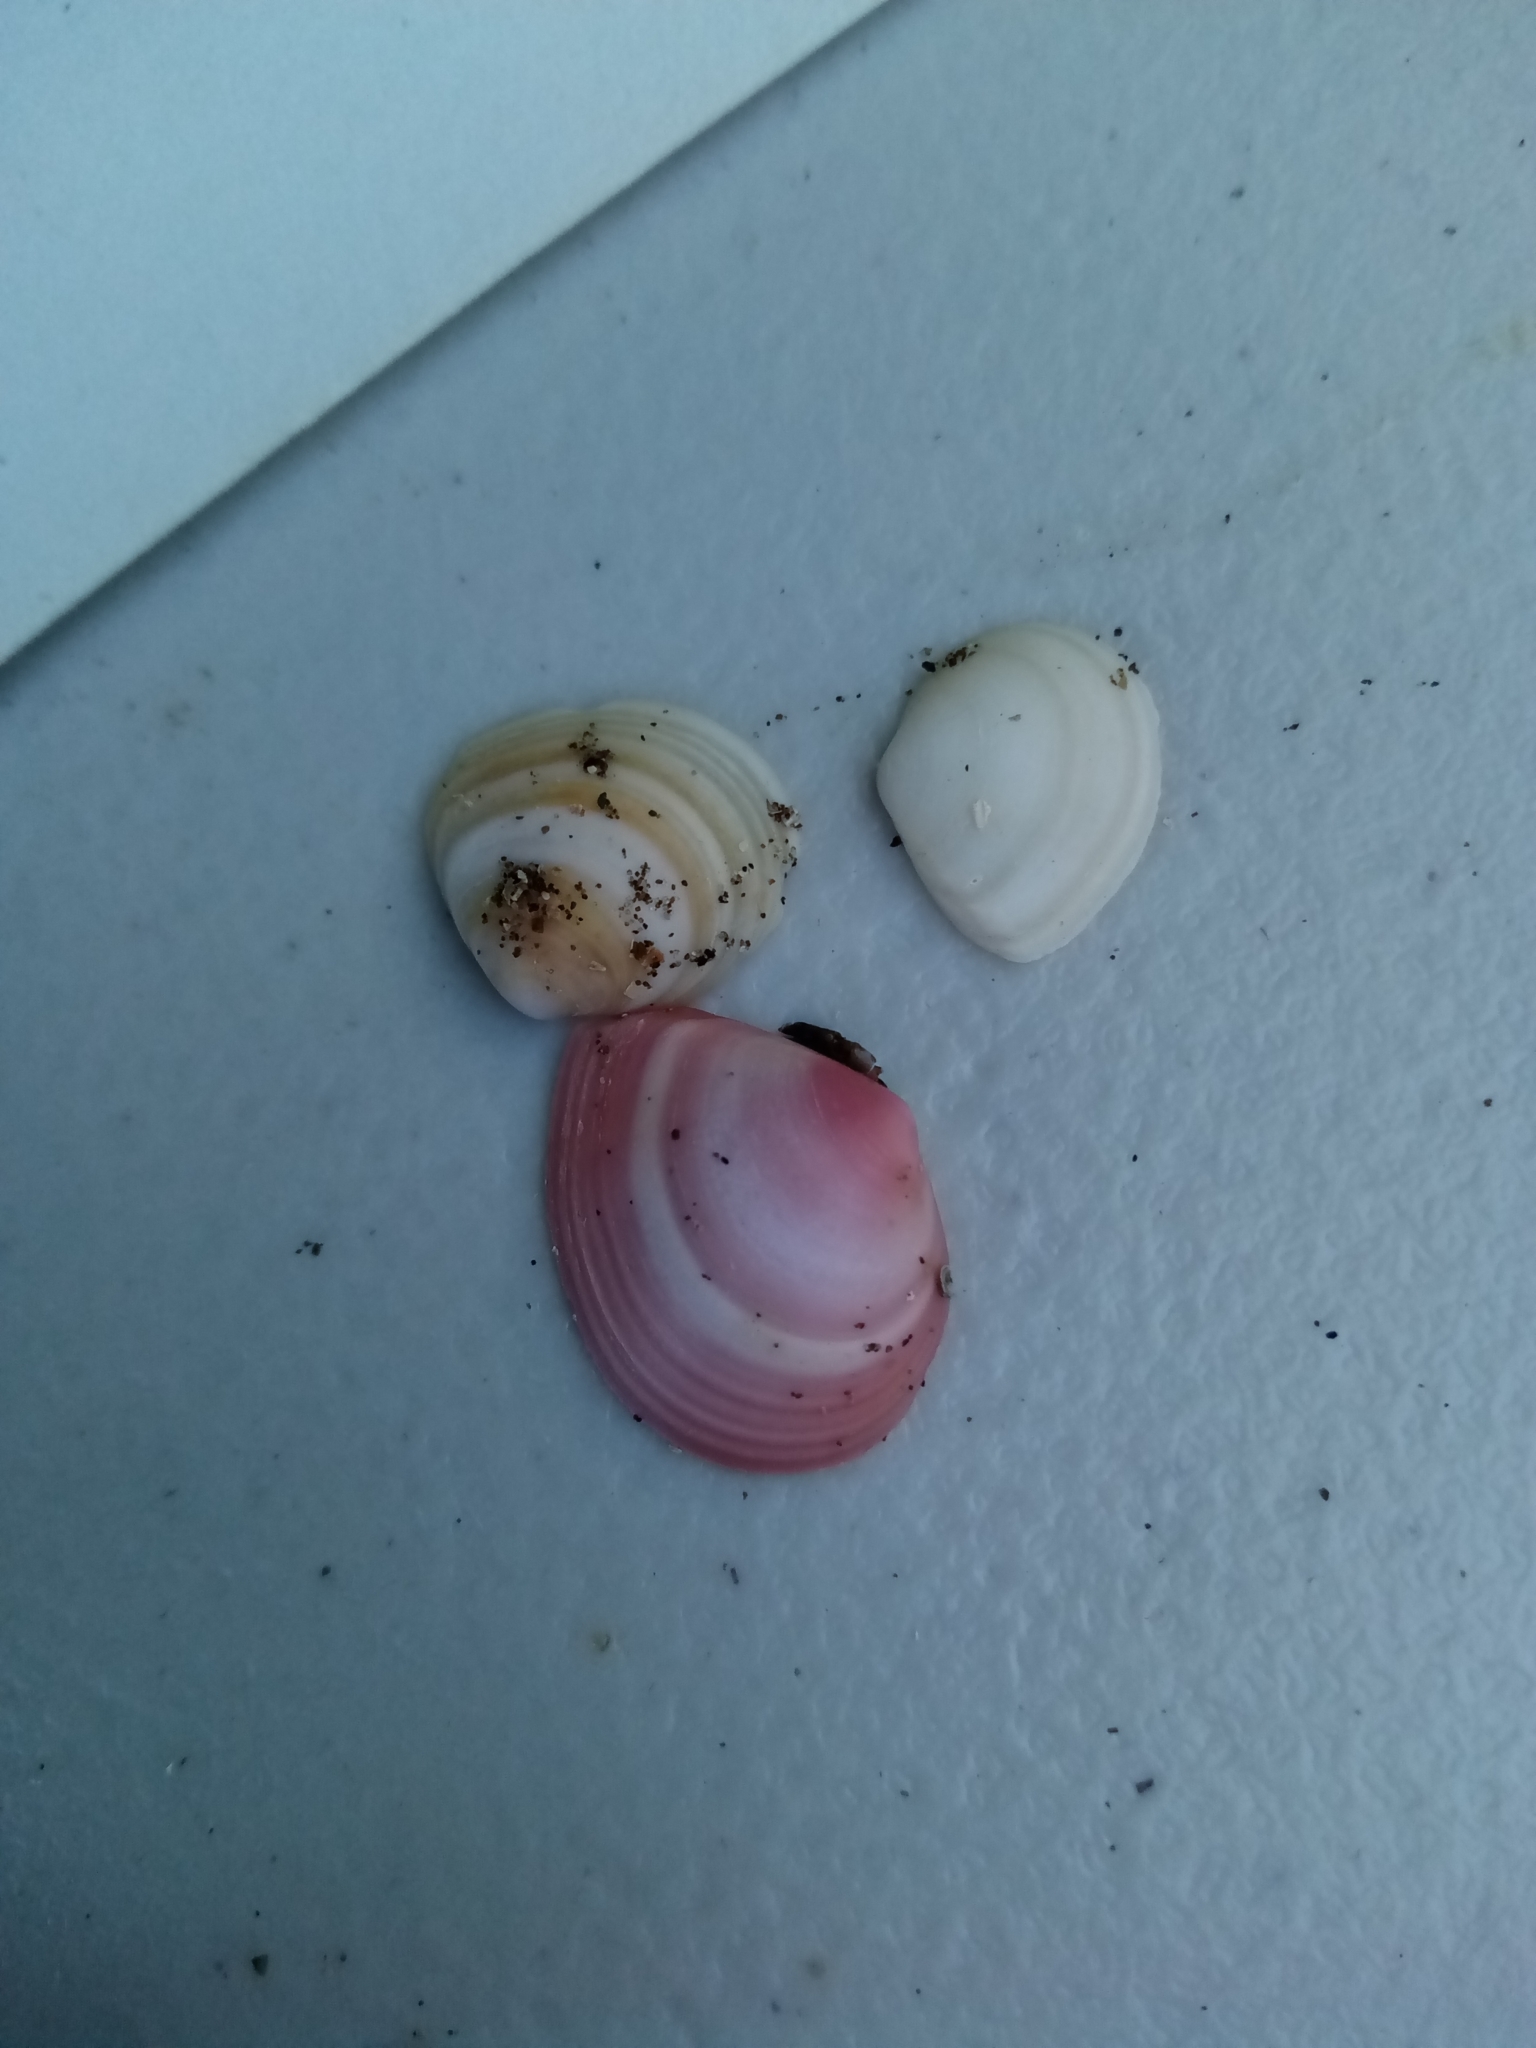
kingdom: Animalia
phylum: Mollusca
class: Bivalvia
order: Cardiida
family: Tellinidae
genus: Macoma
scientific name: Macoma balthica
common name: Baltic tellin
